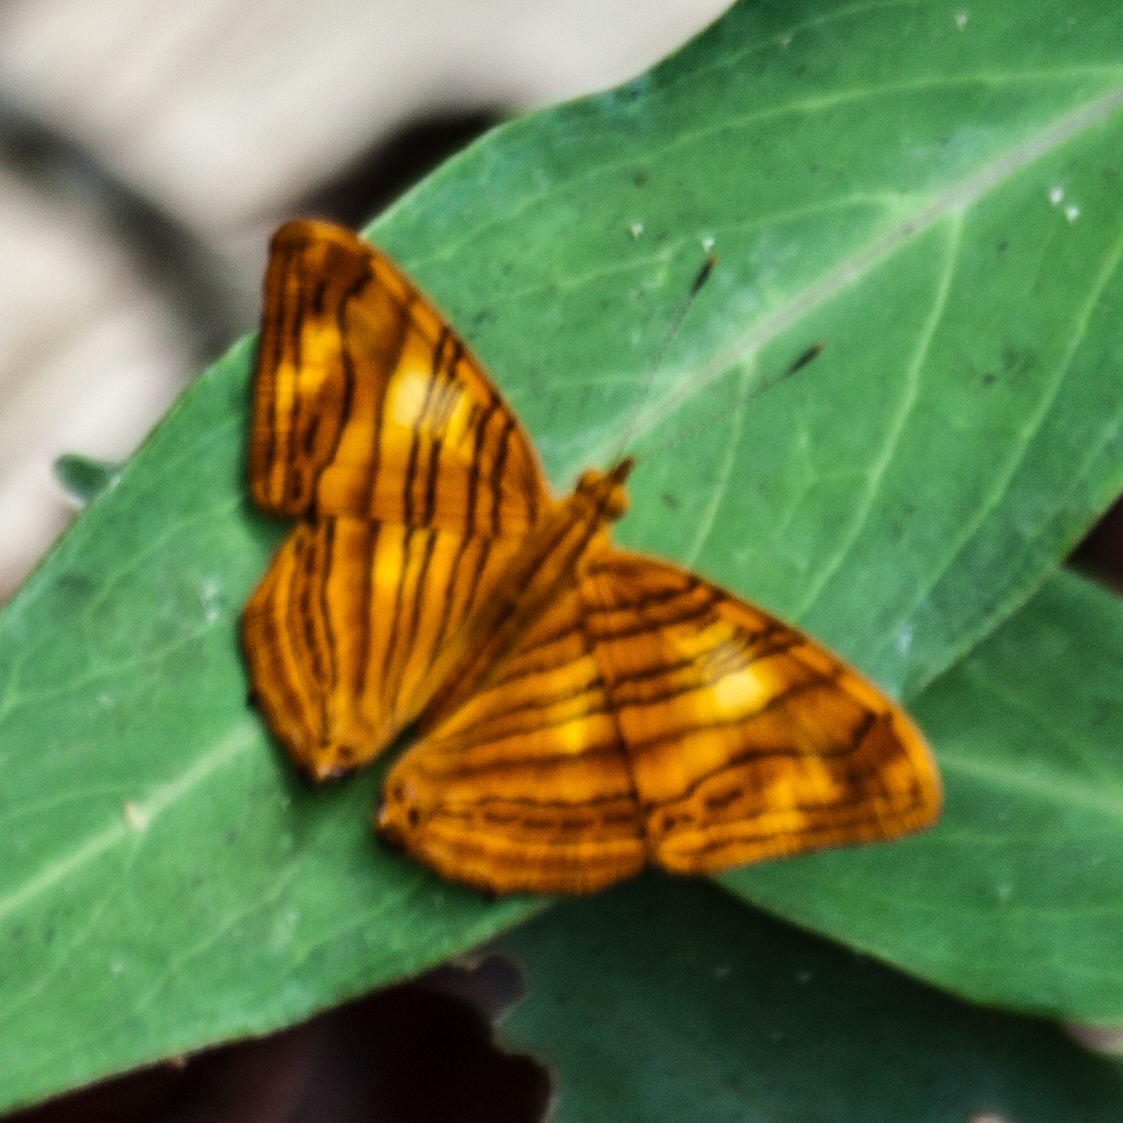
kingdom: Animalia
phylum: Arthropoda
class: Insecta
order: Lepidoptera
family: Nymphalidae
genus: Chersonesia
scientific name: Chersonesia intermedia
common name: Intermediate maplet
